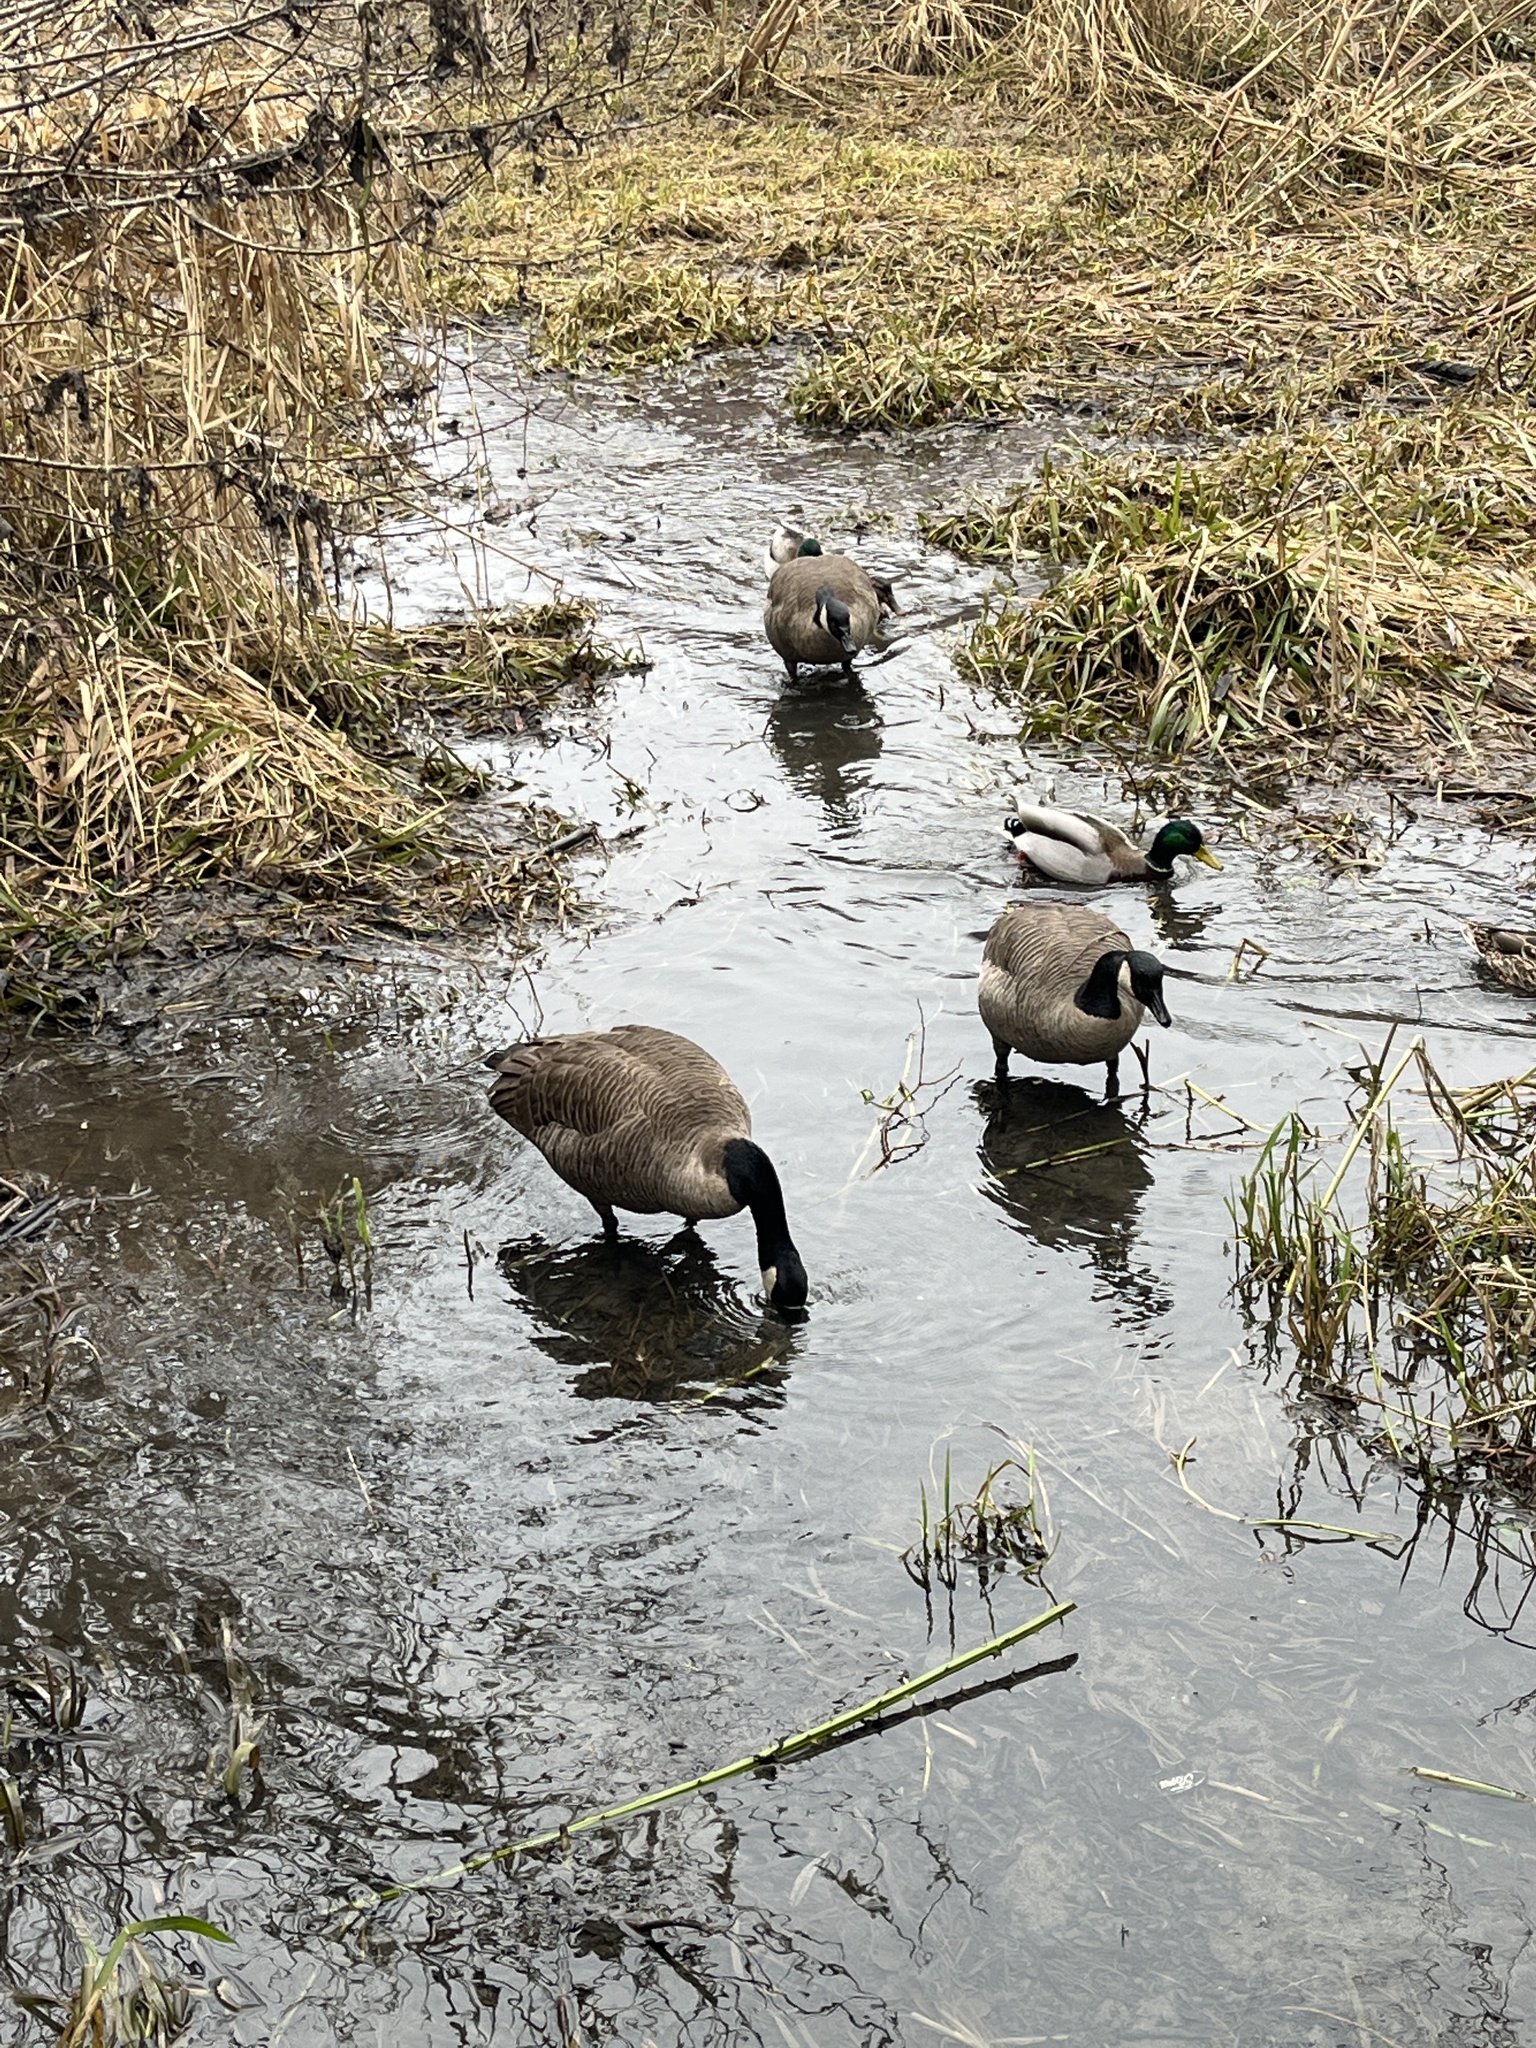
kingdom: Animalia
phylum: Chordata
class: Aves
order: Anseriformes
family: Anatidae
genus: Branta
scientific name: Branta canadensis
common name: Canada goose
